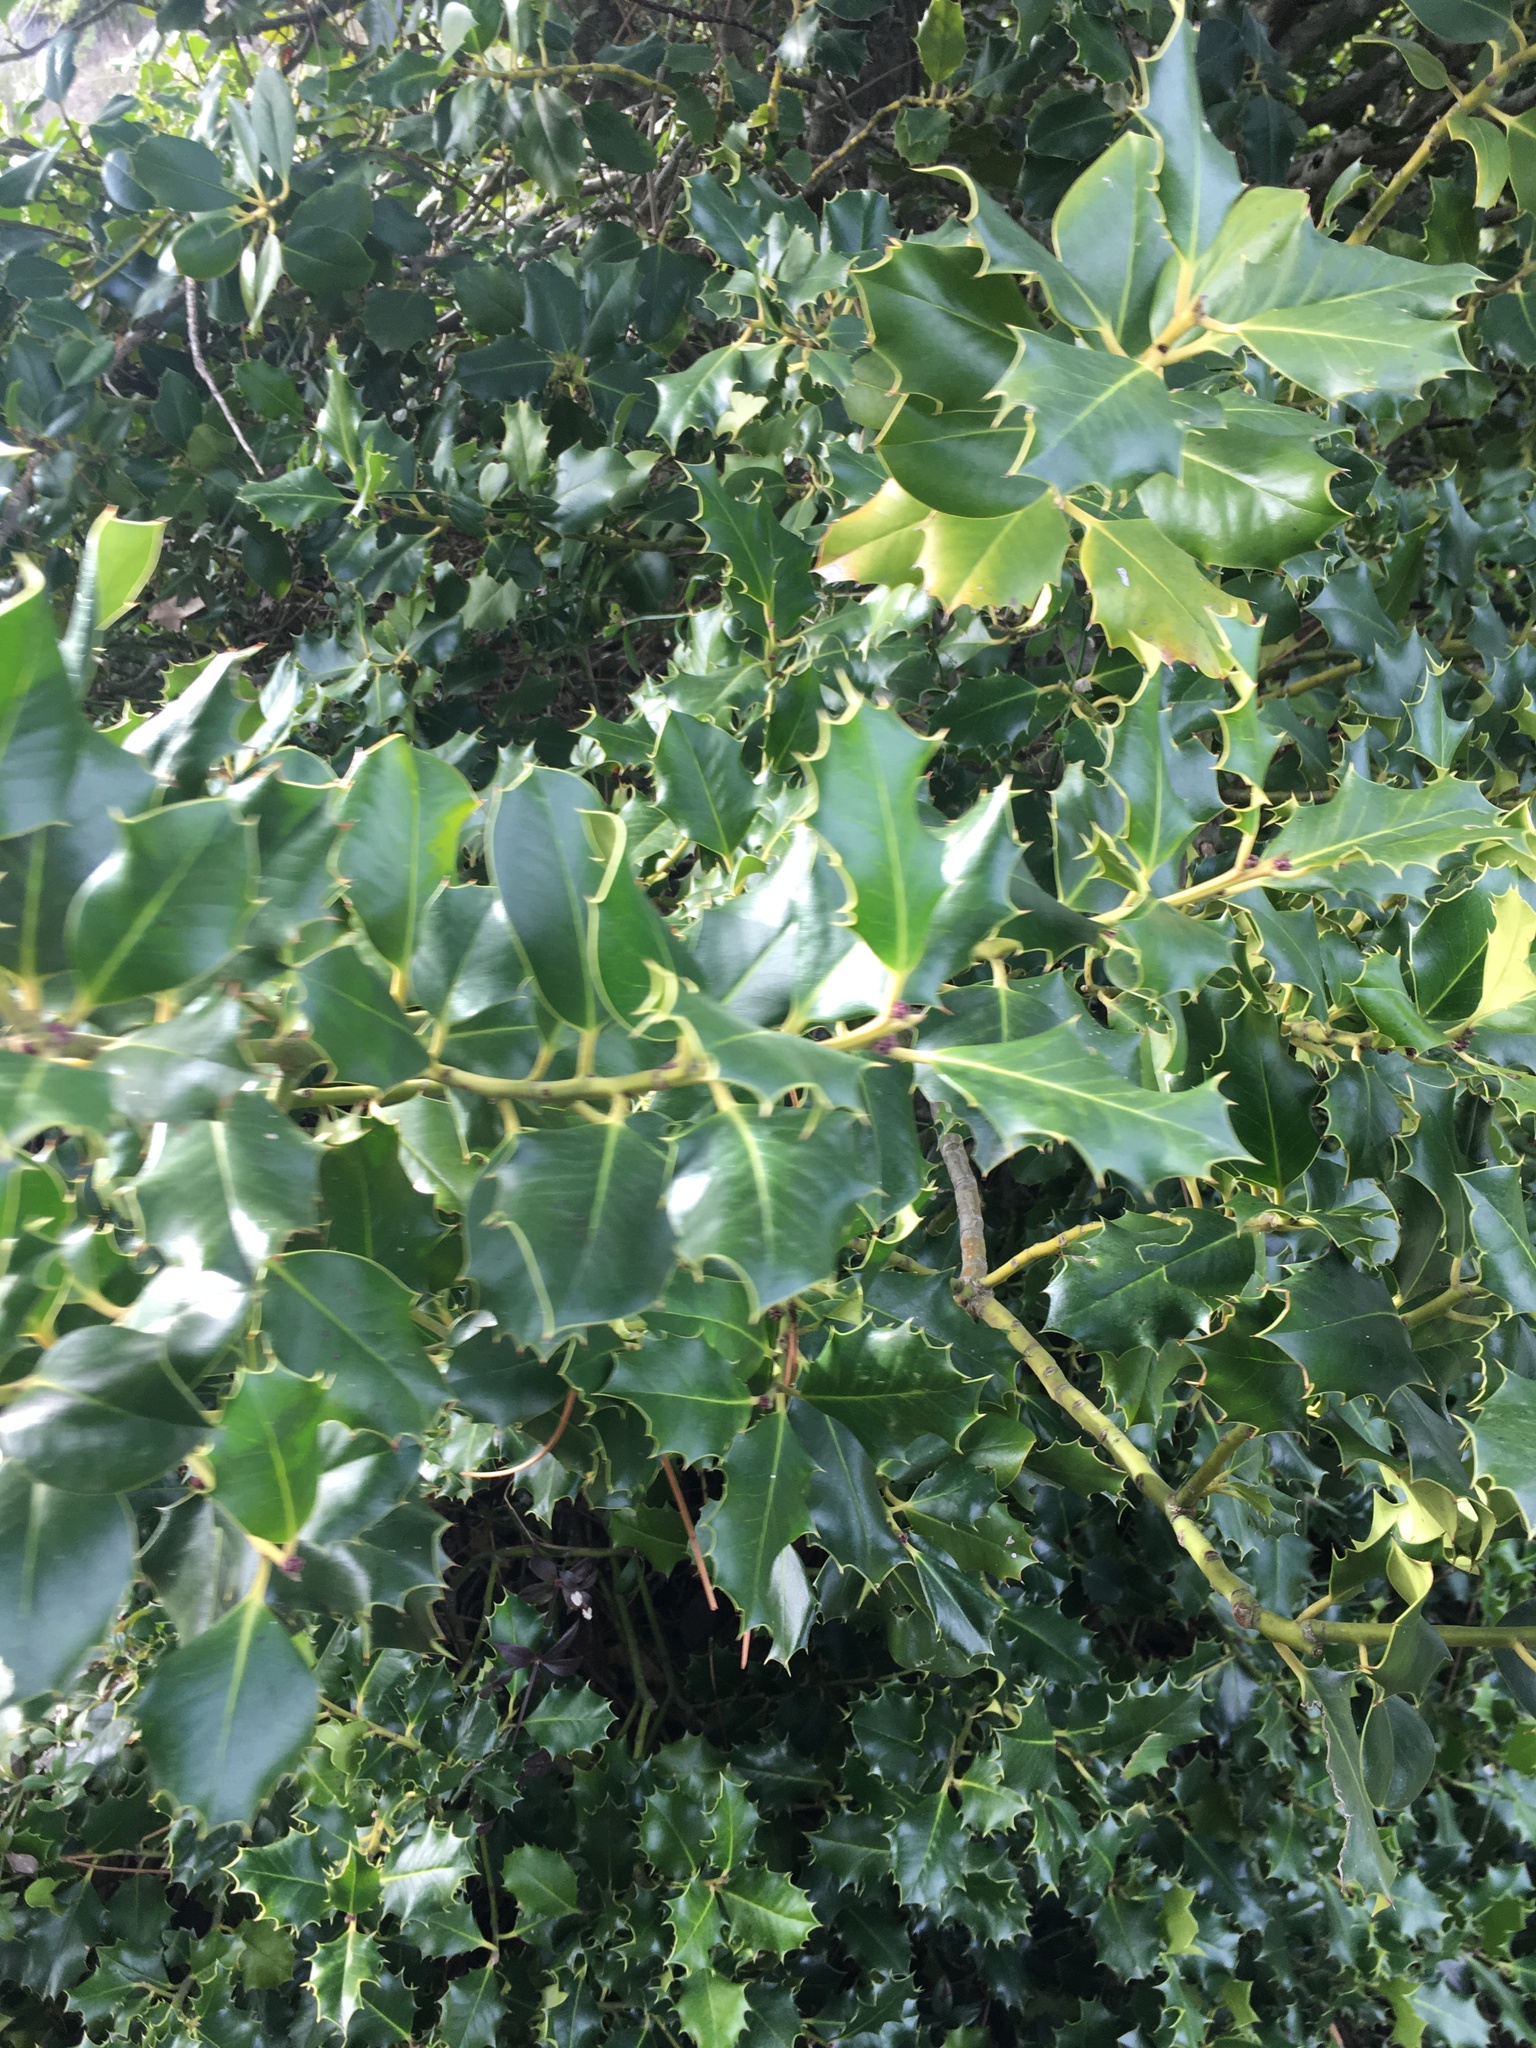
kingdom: Plantae
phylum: Tracheophyta
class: Magnoliopsida
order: Aquifoliales
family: Aquifoliaceae
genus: Ilex
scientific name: Ilex aquifolium
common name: English holly
